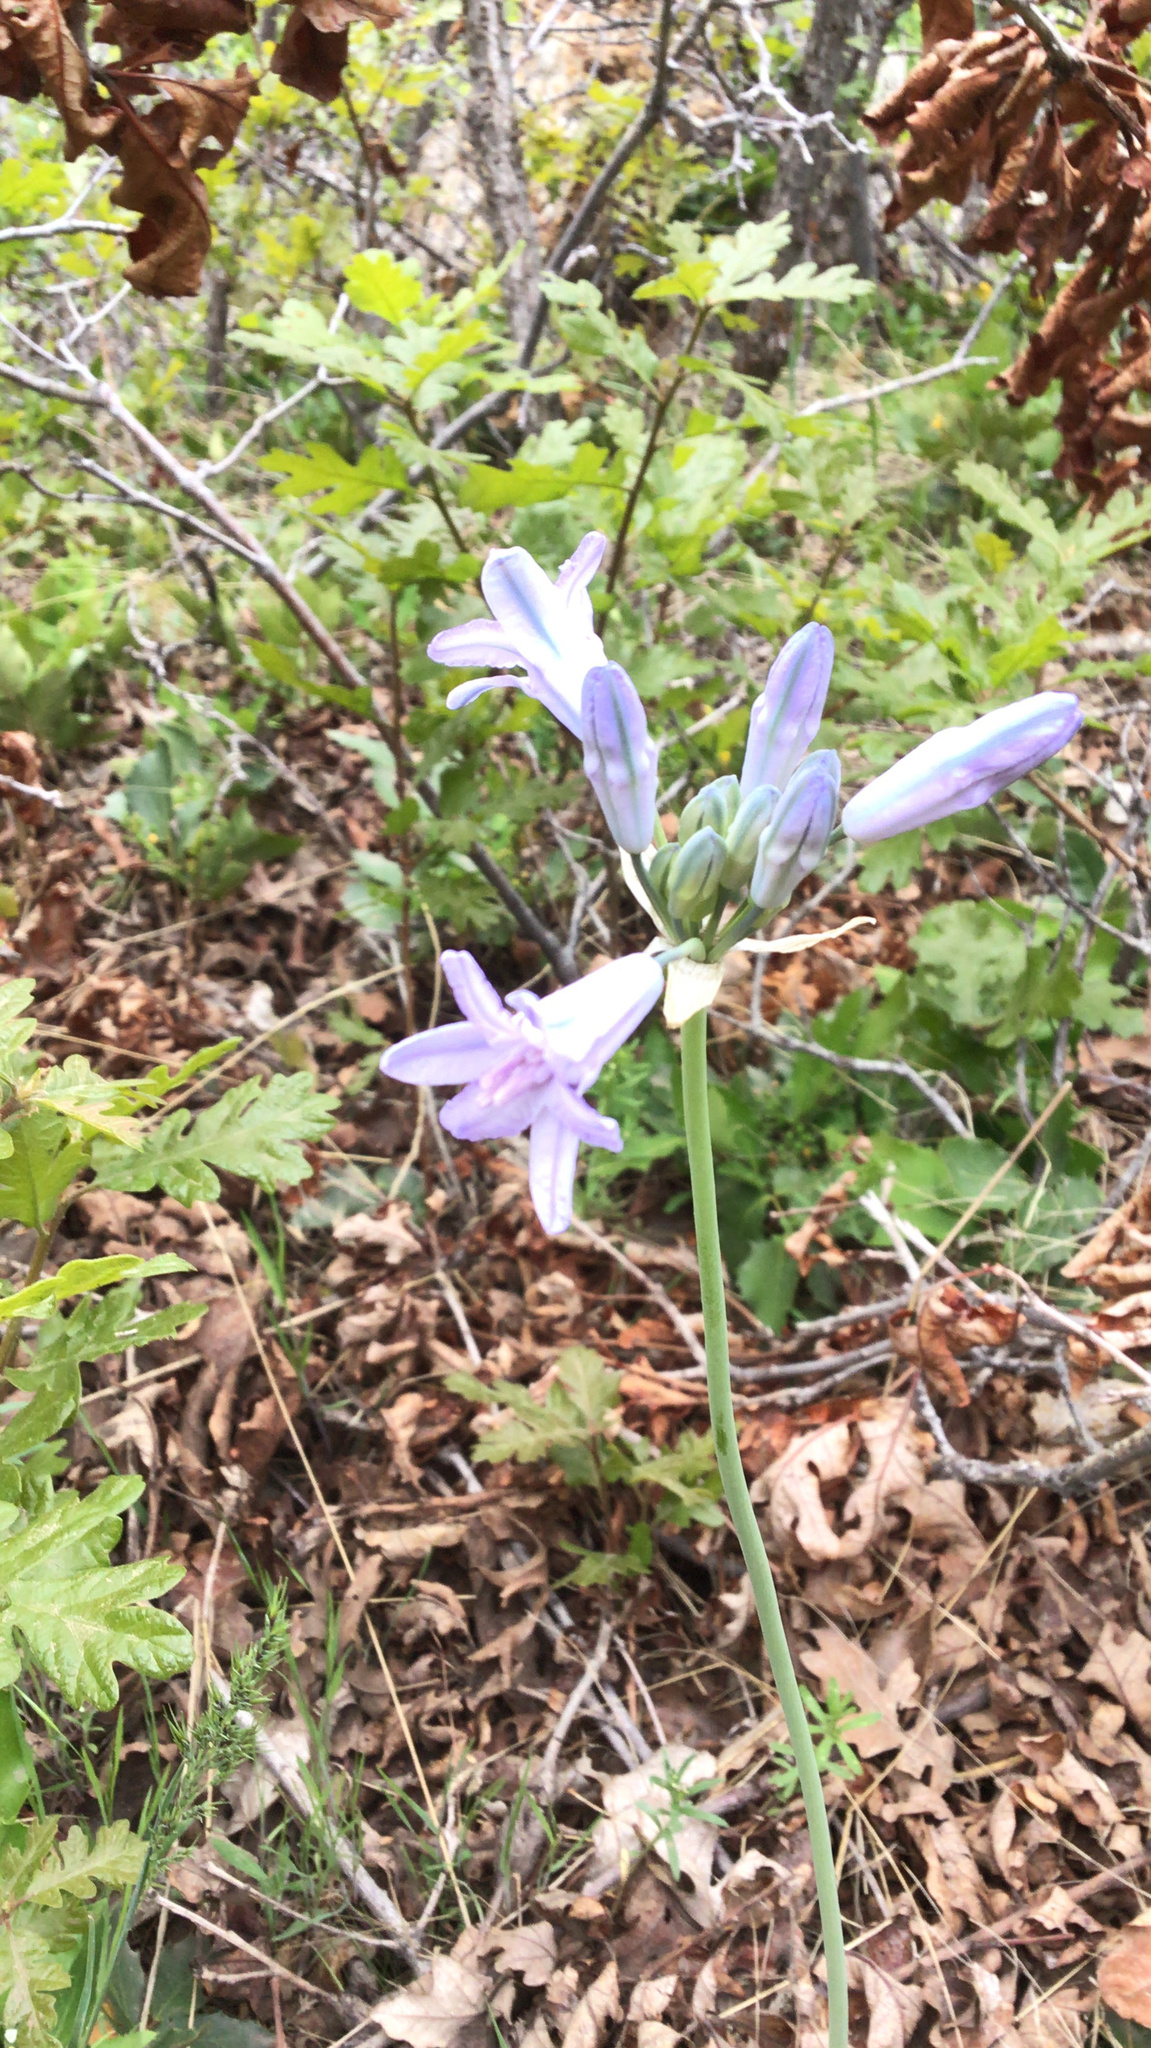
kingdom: Plantae
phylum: Tracheophyta
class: Liliopsida
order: Asparagales
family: Asparagaceae
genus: Triteleia
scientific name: Triteleia grandiflora
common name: Wild hyacinth
